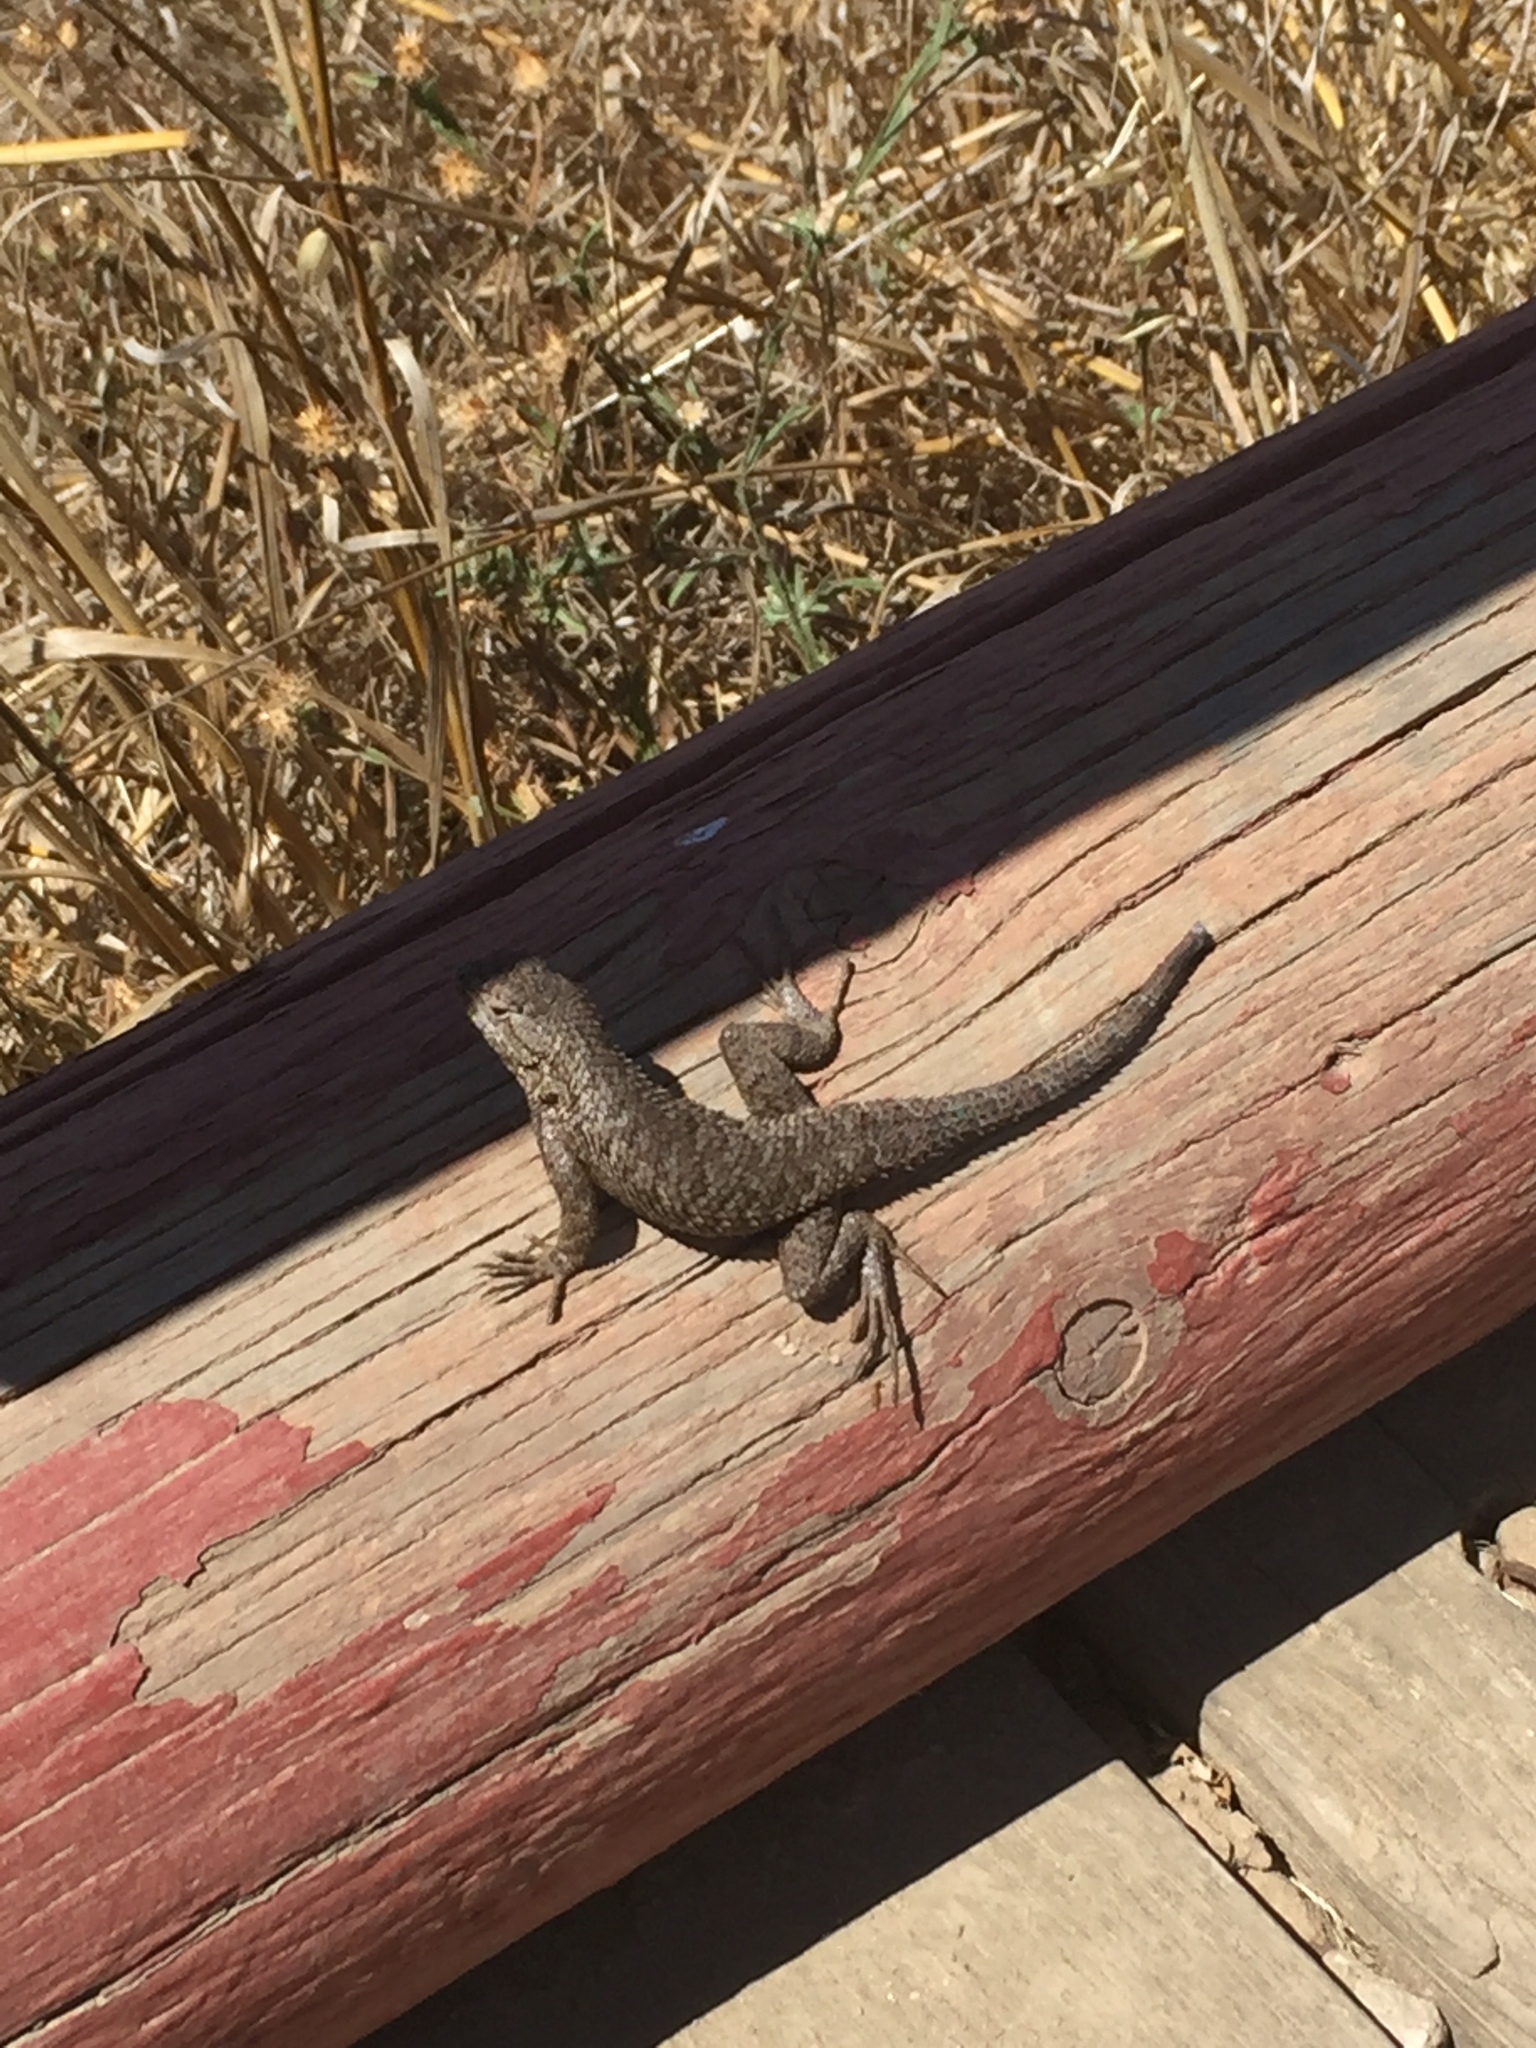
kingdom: Animalia
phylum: Chordata
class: Squamata
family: Phrynosomatidae
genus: Sceloporus
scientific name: Sceloporus occidentalis
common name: Western fence lizard
